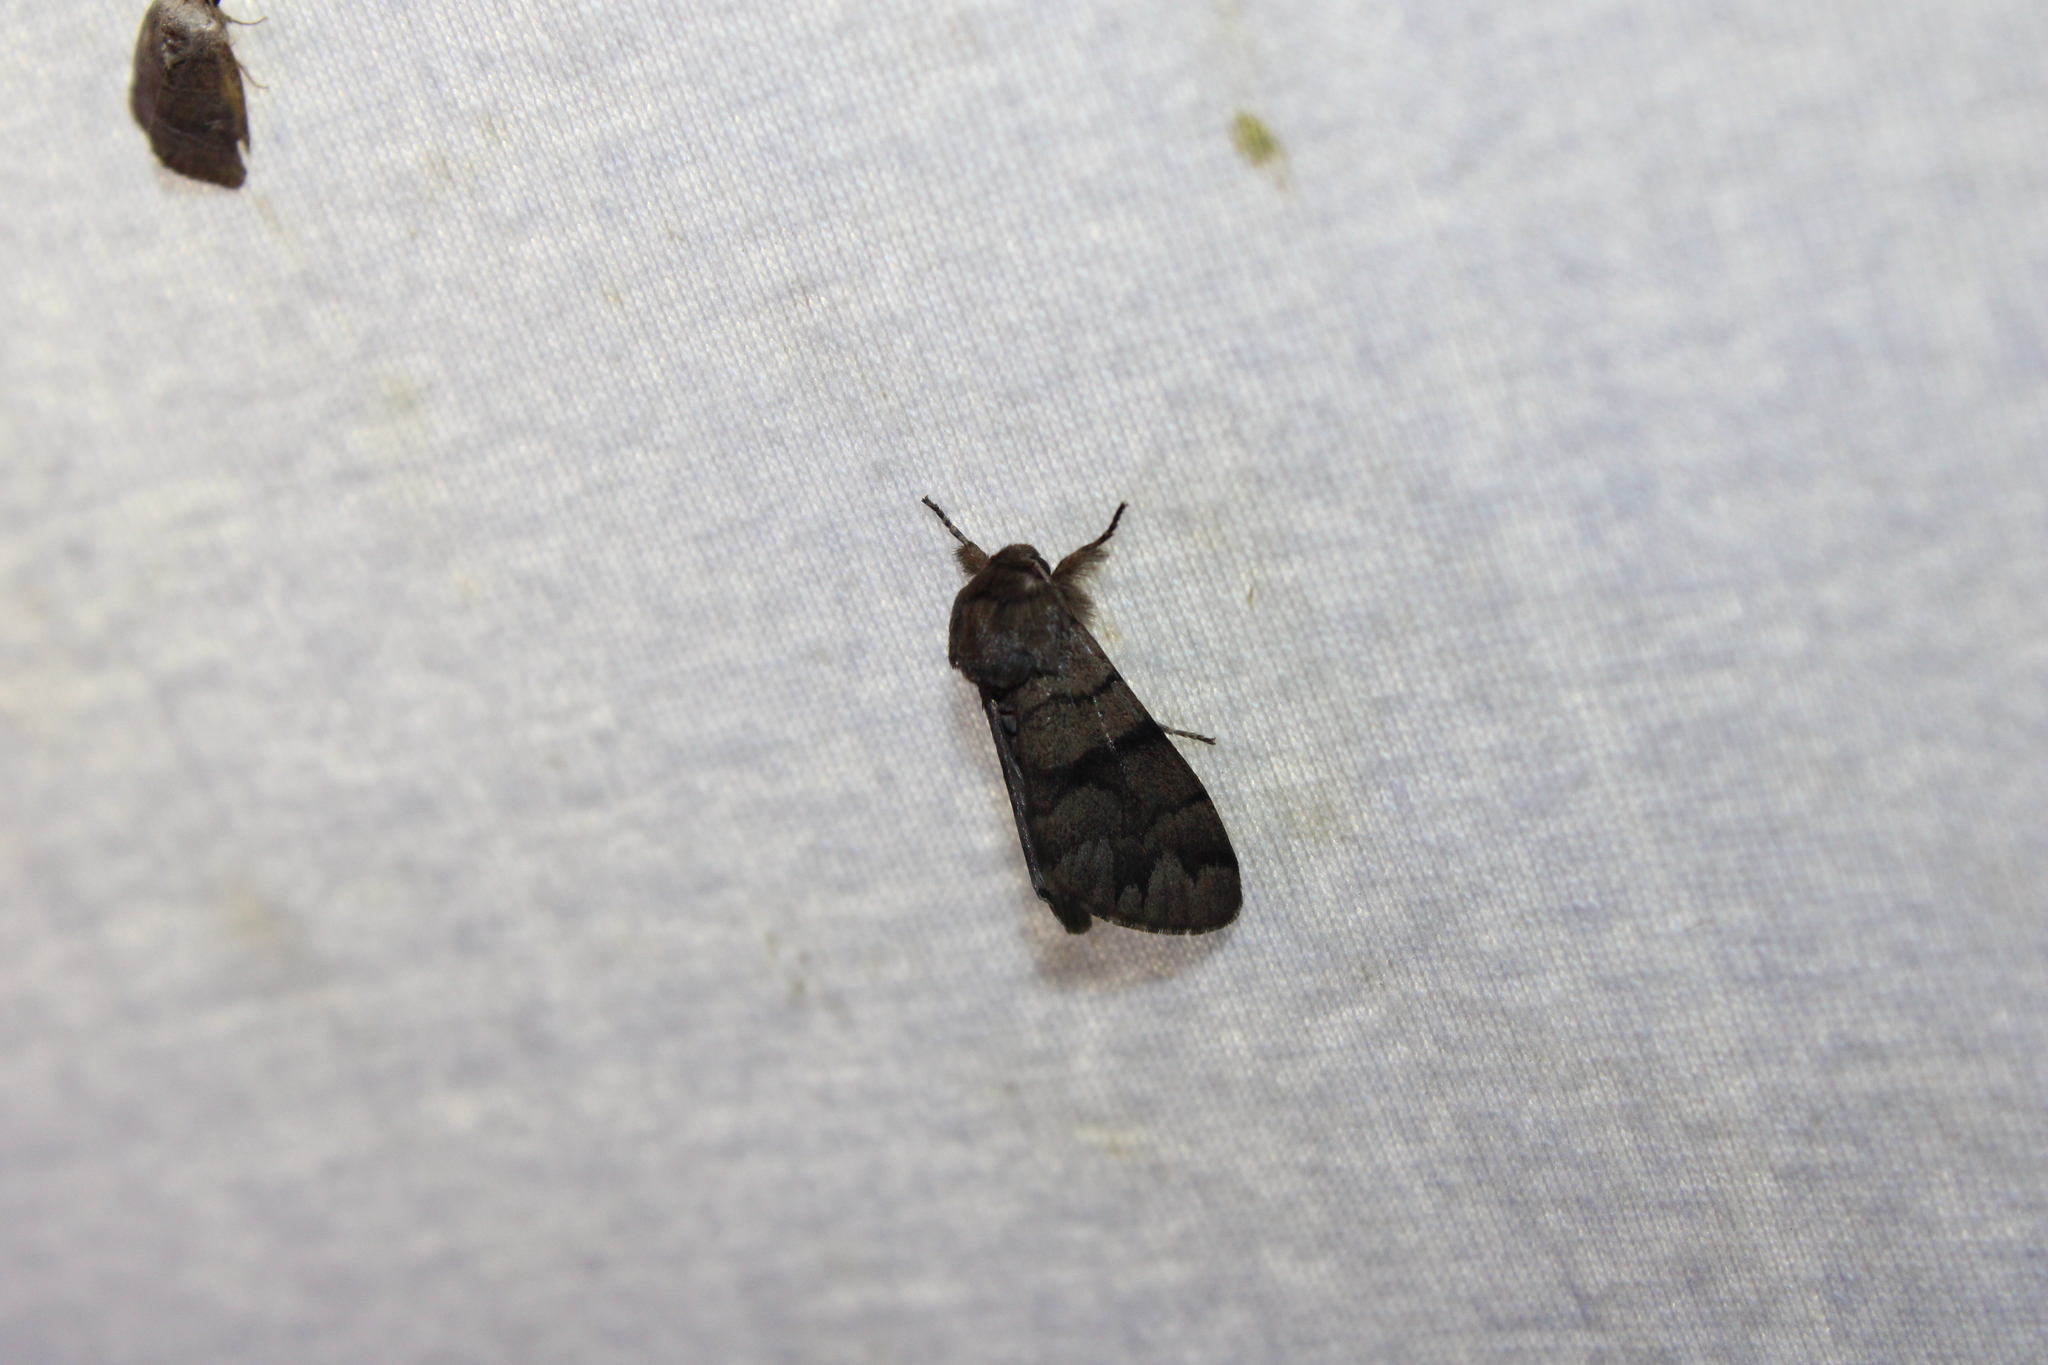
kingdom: Animalia
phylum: Arthropoda
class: Insecta
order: Lepidoptera
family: Noctuidae
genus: Panthea
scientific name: Panthea furcilla
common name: Eastern panthea moth
